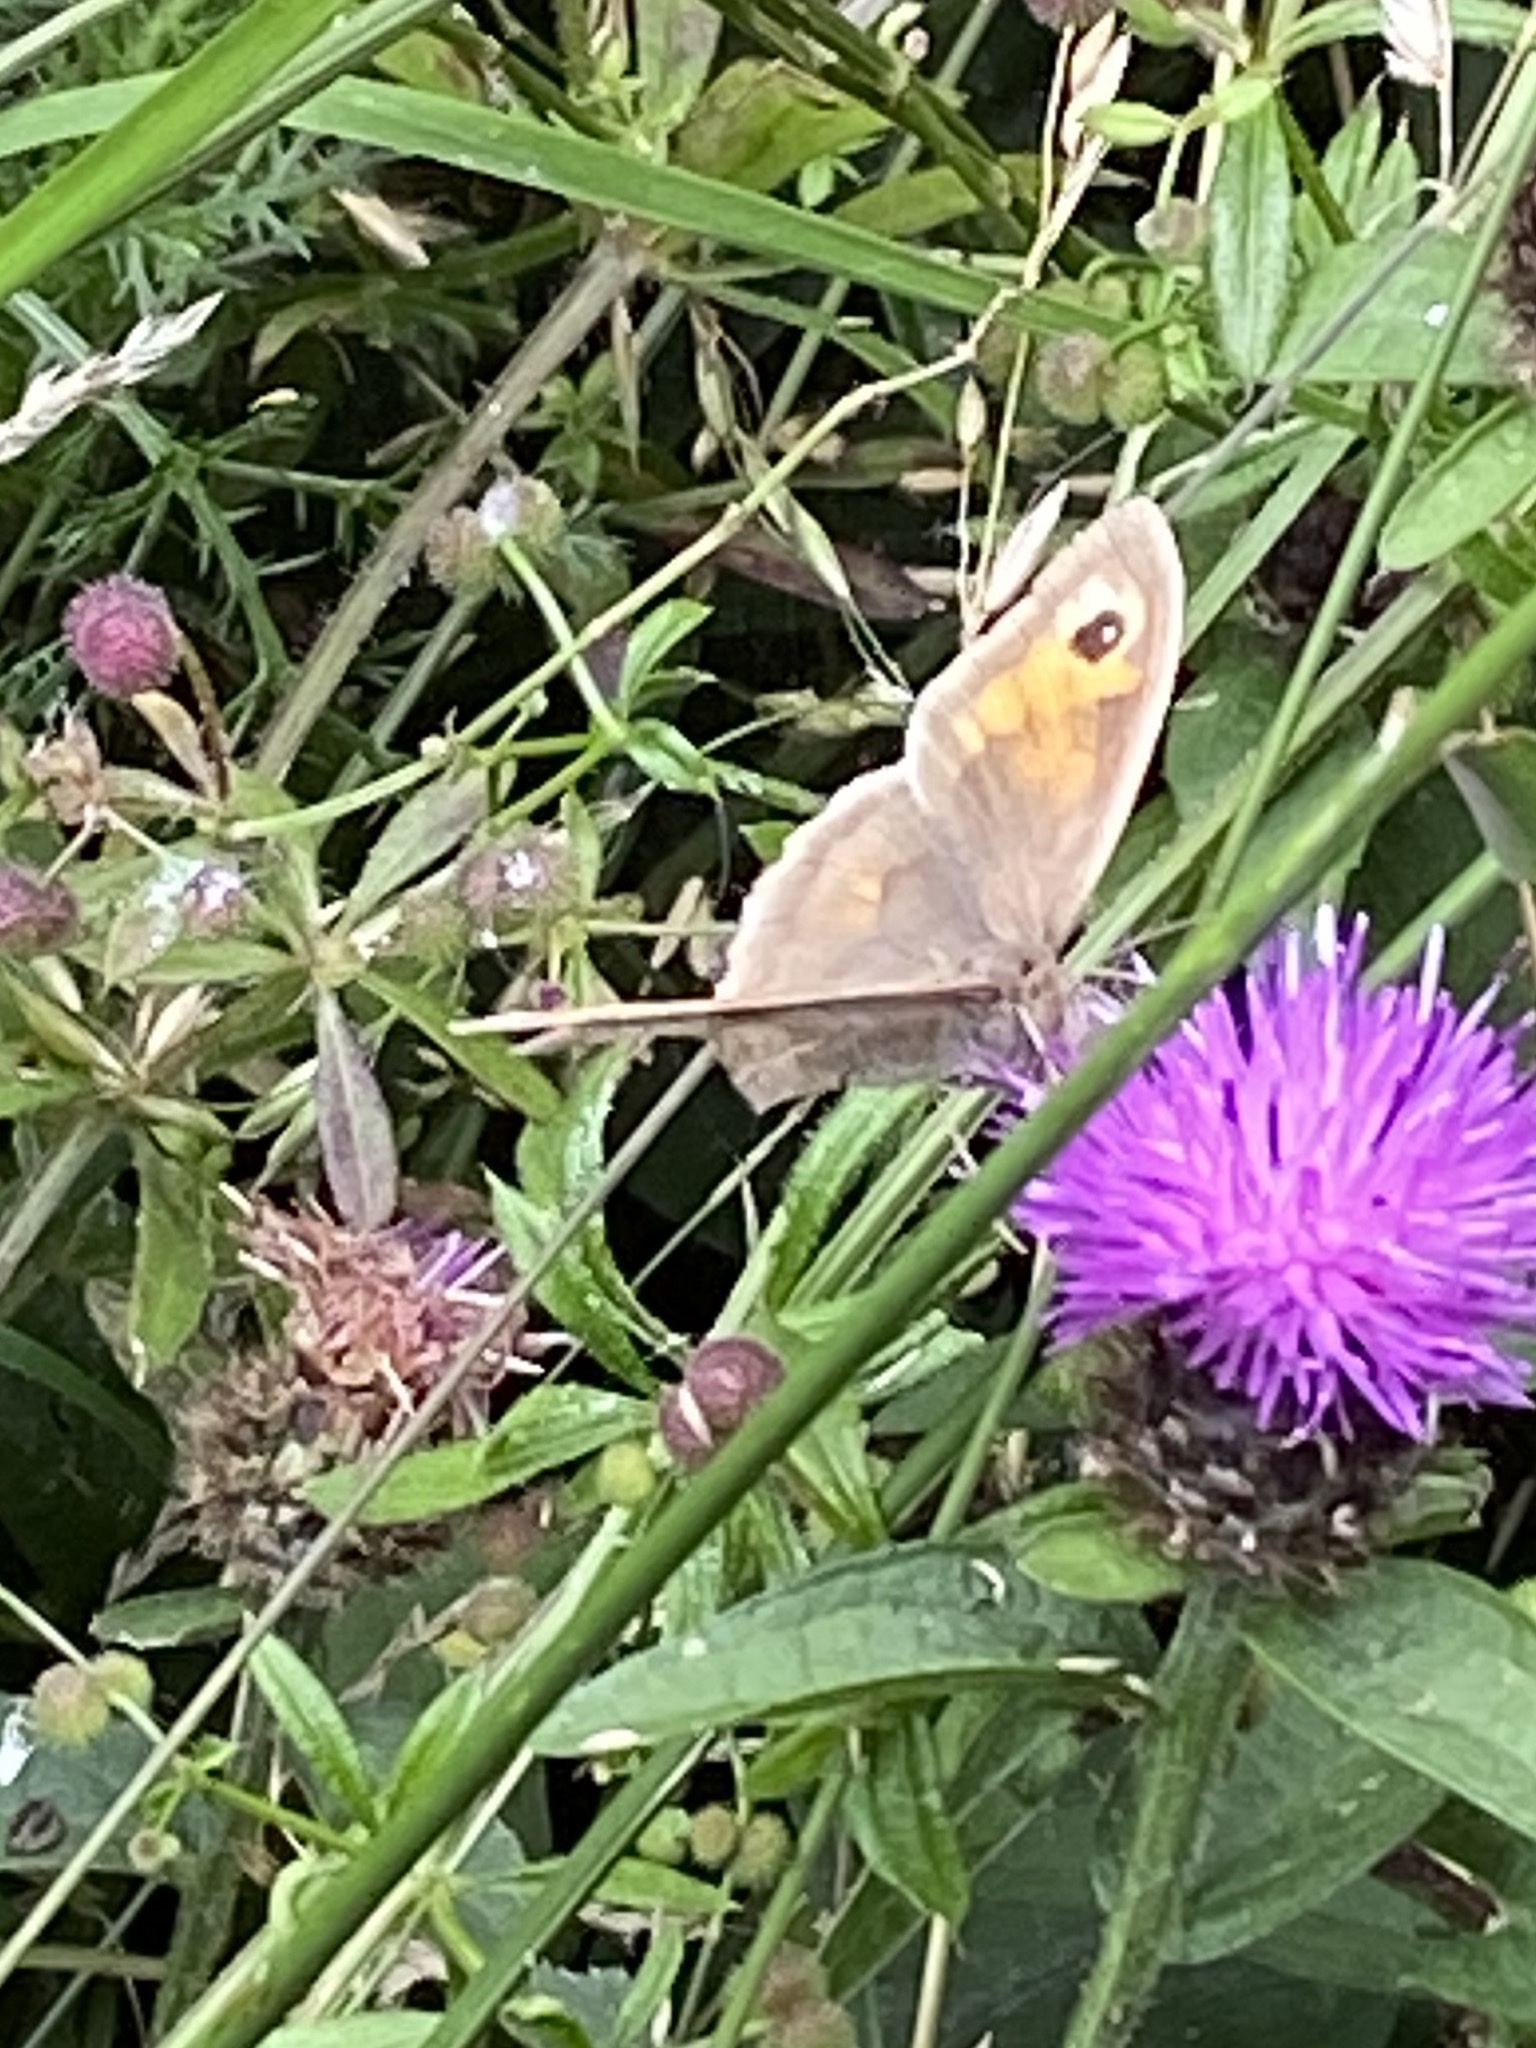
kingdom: Animalia
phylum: Arthropoda
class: Insecta
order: Lepidoptera
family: Nymphalidae
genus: Maniola
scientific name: Maniola jurtina
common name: Meadow brown
